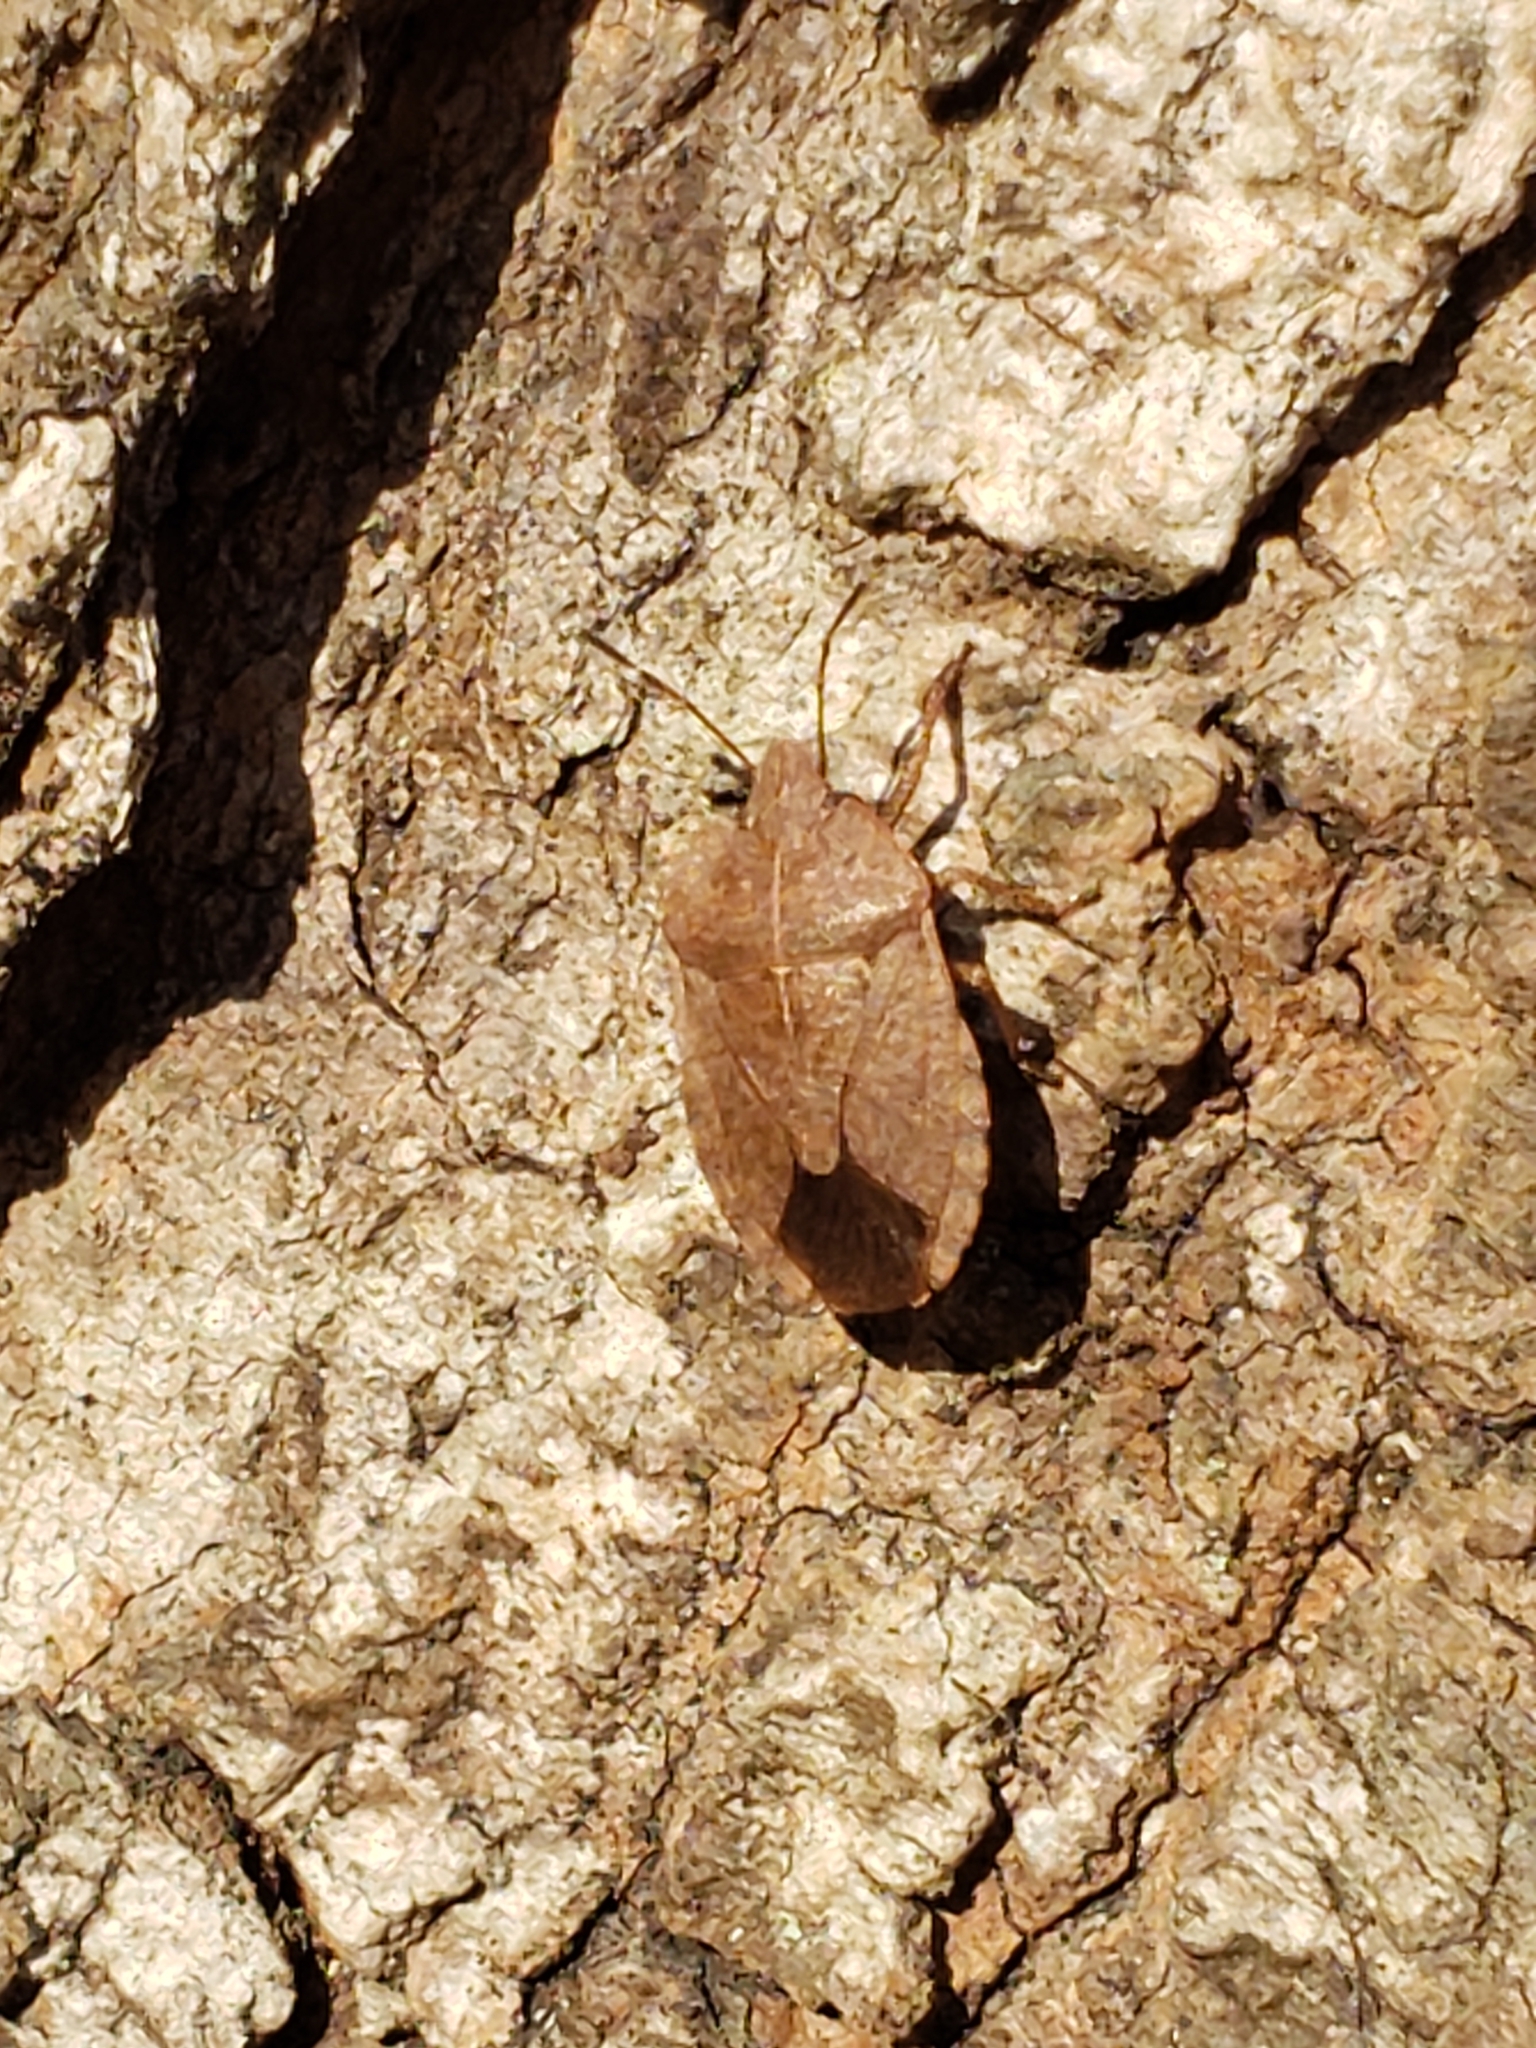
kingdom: Animalia
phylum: Arthropoda
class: Insecta
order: Hemiptera
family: Pentatomidae
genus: Menecles
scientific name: Menecles insertus
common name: Elf shoe stink bug
